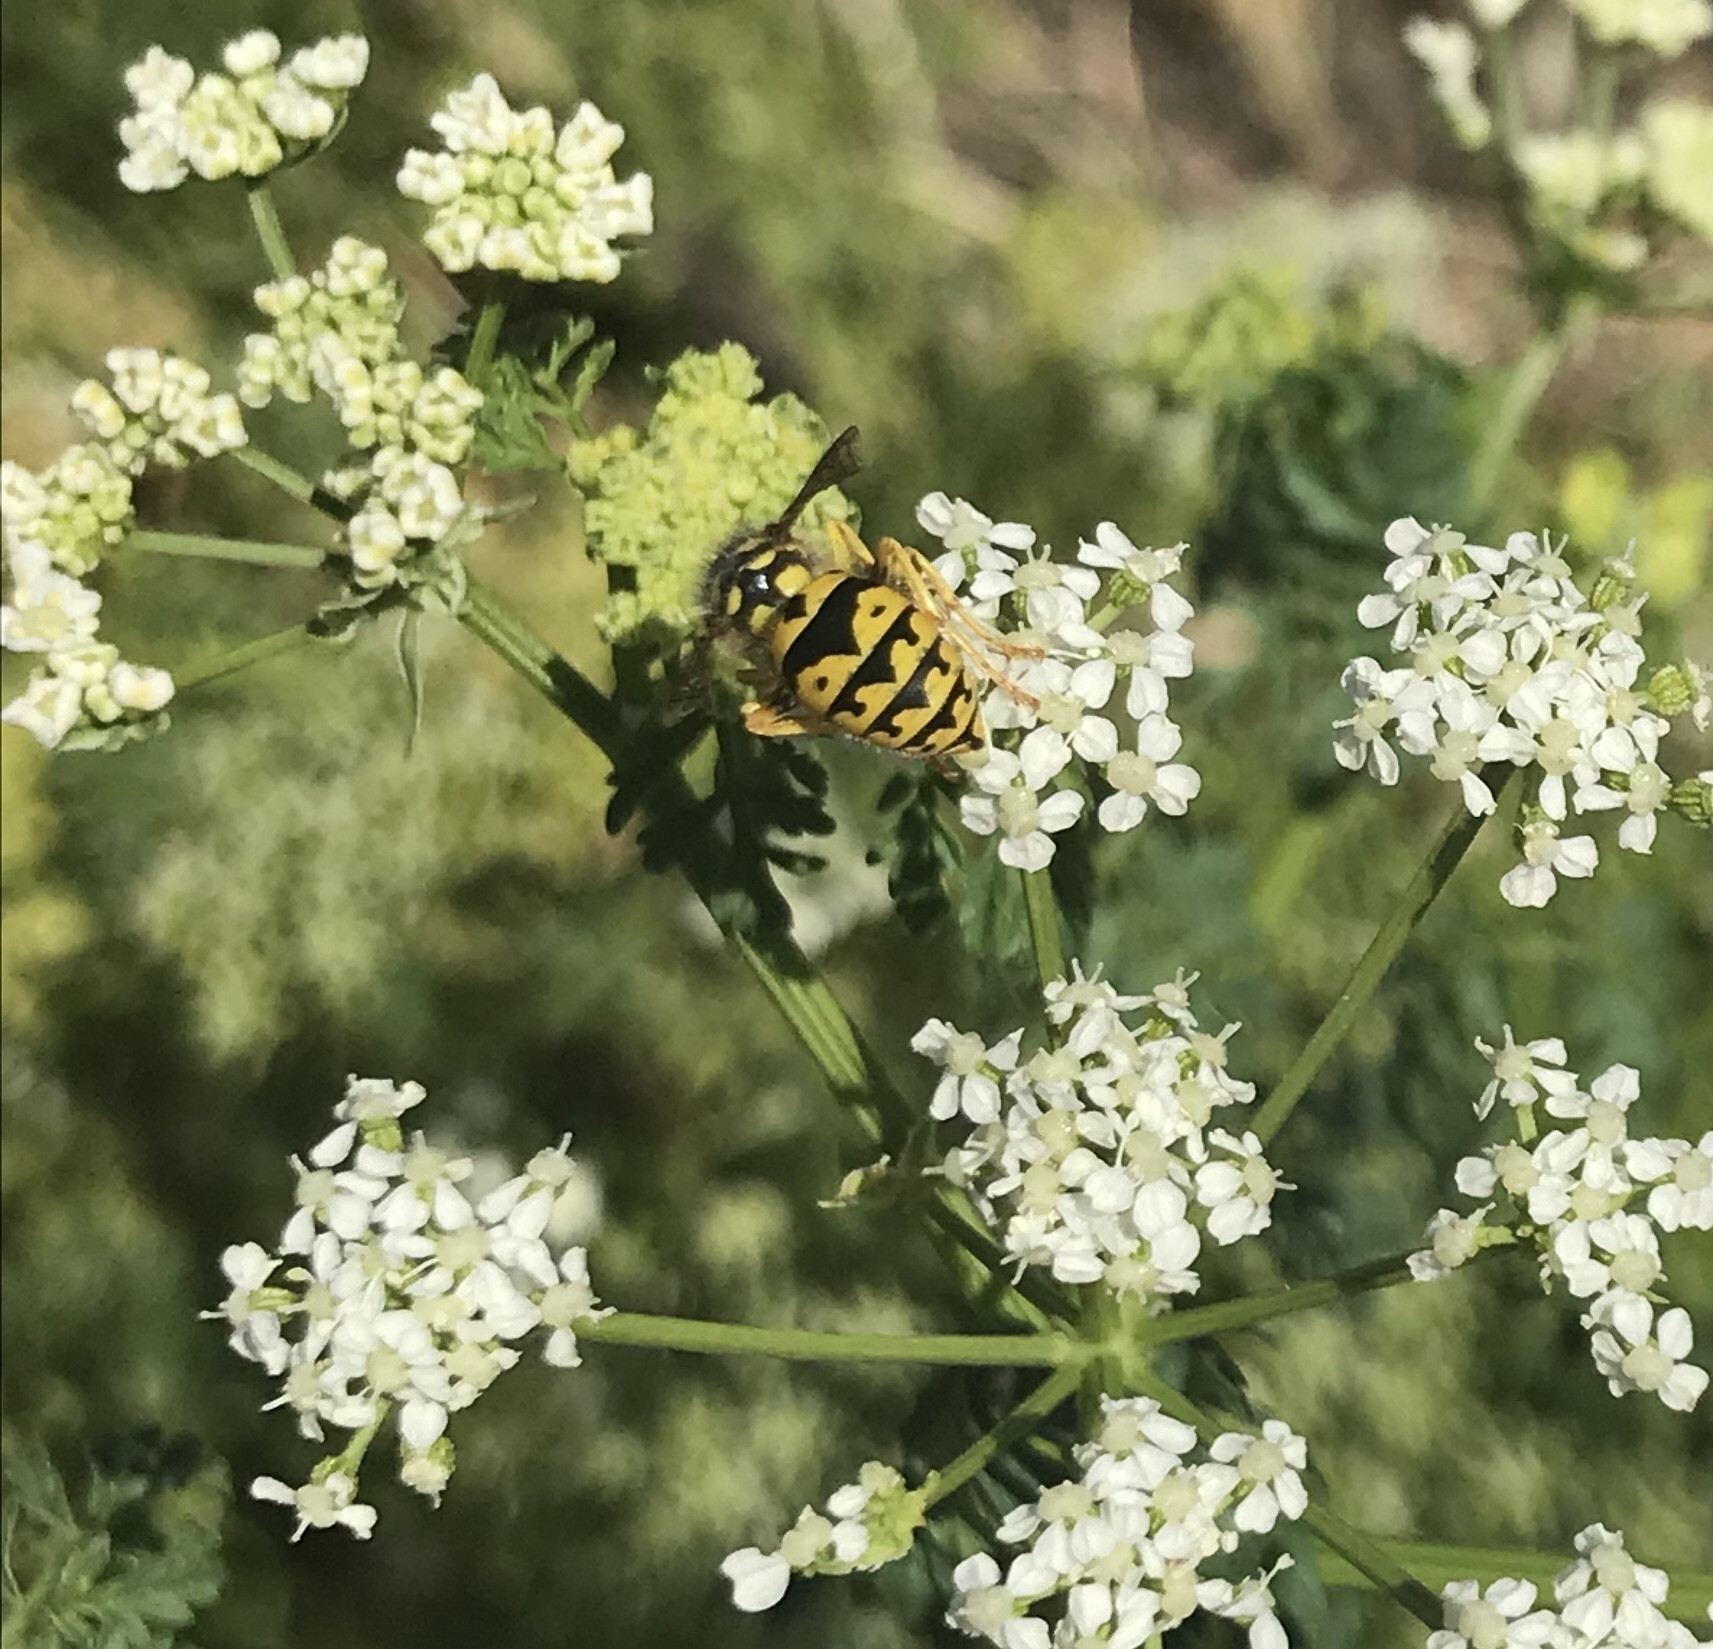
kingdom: Animalia
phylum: Arthropoda
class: Insecta
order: Hymenoptera
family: Vespidae
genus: Vespula
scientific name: Vespula pensylvanica
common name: Western yellowjacket
